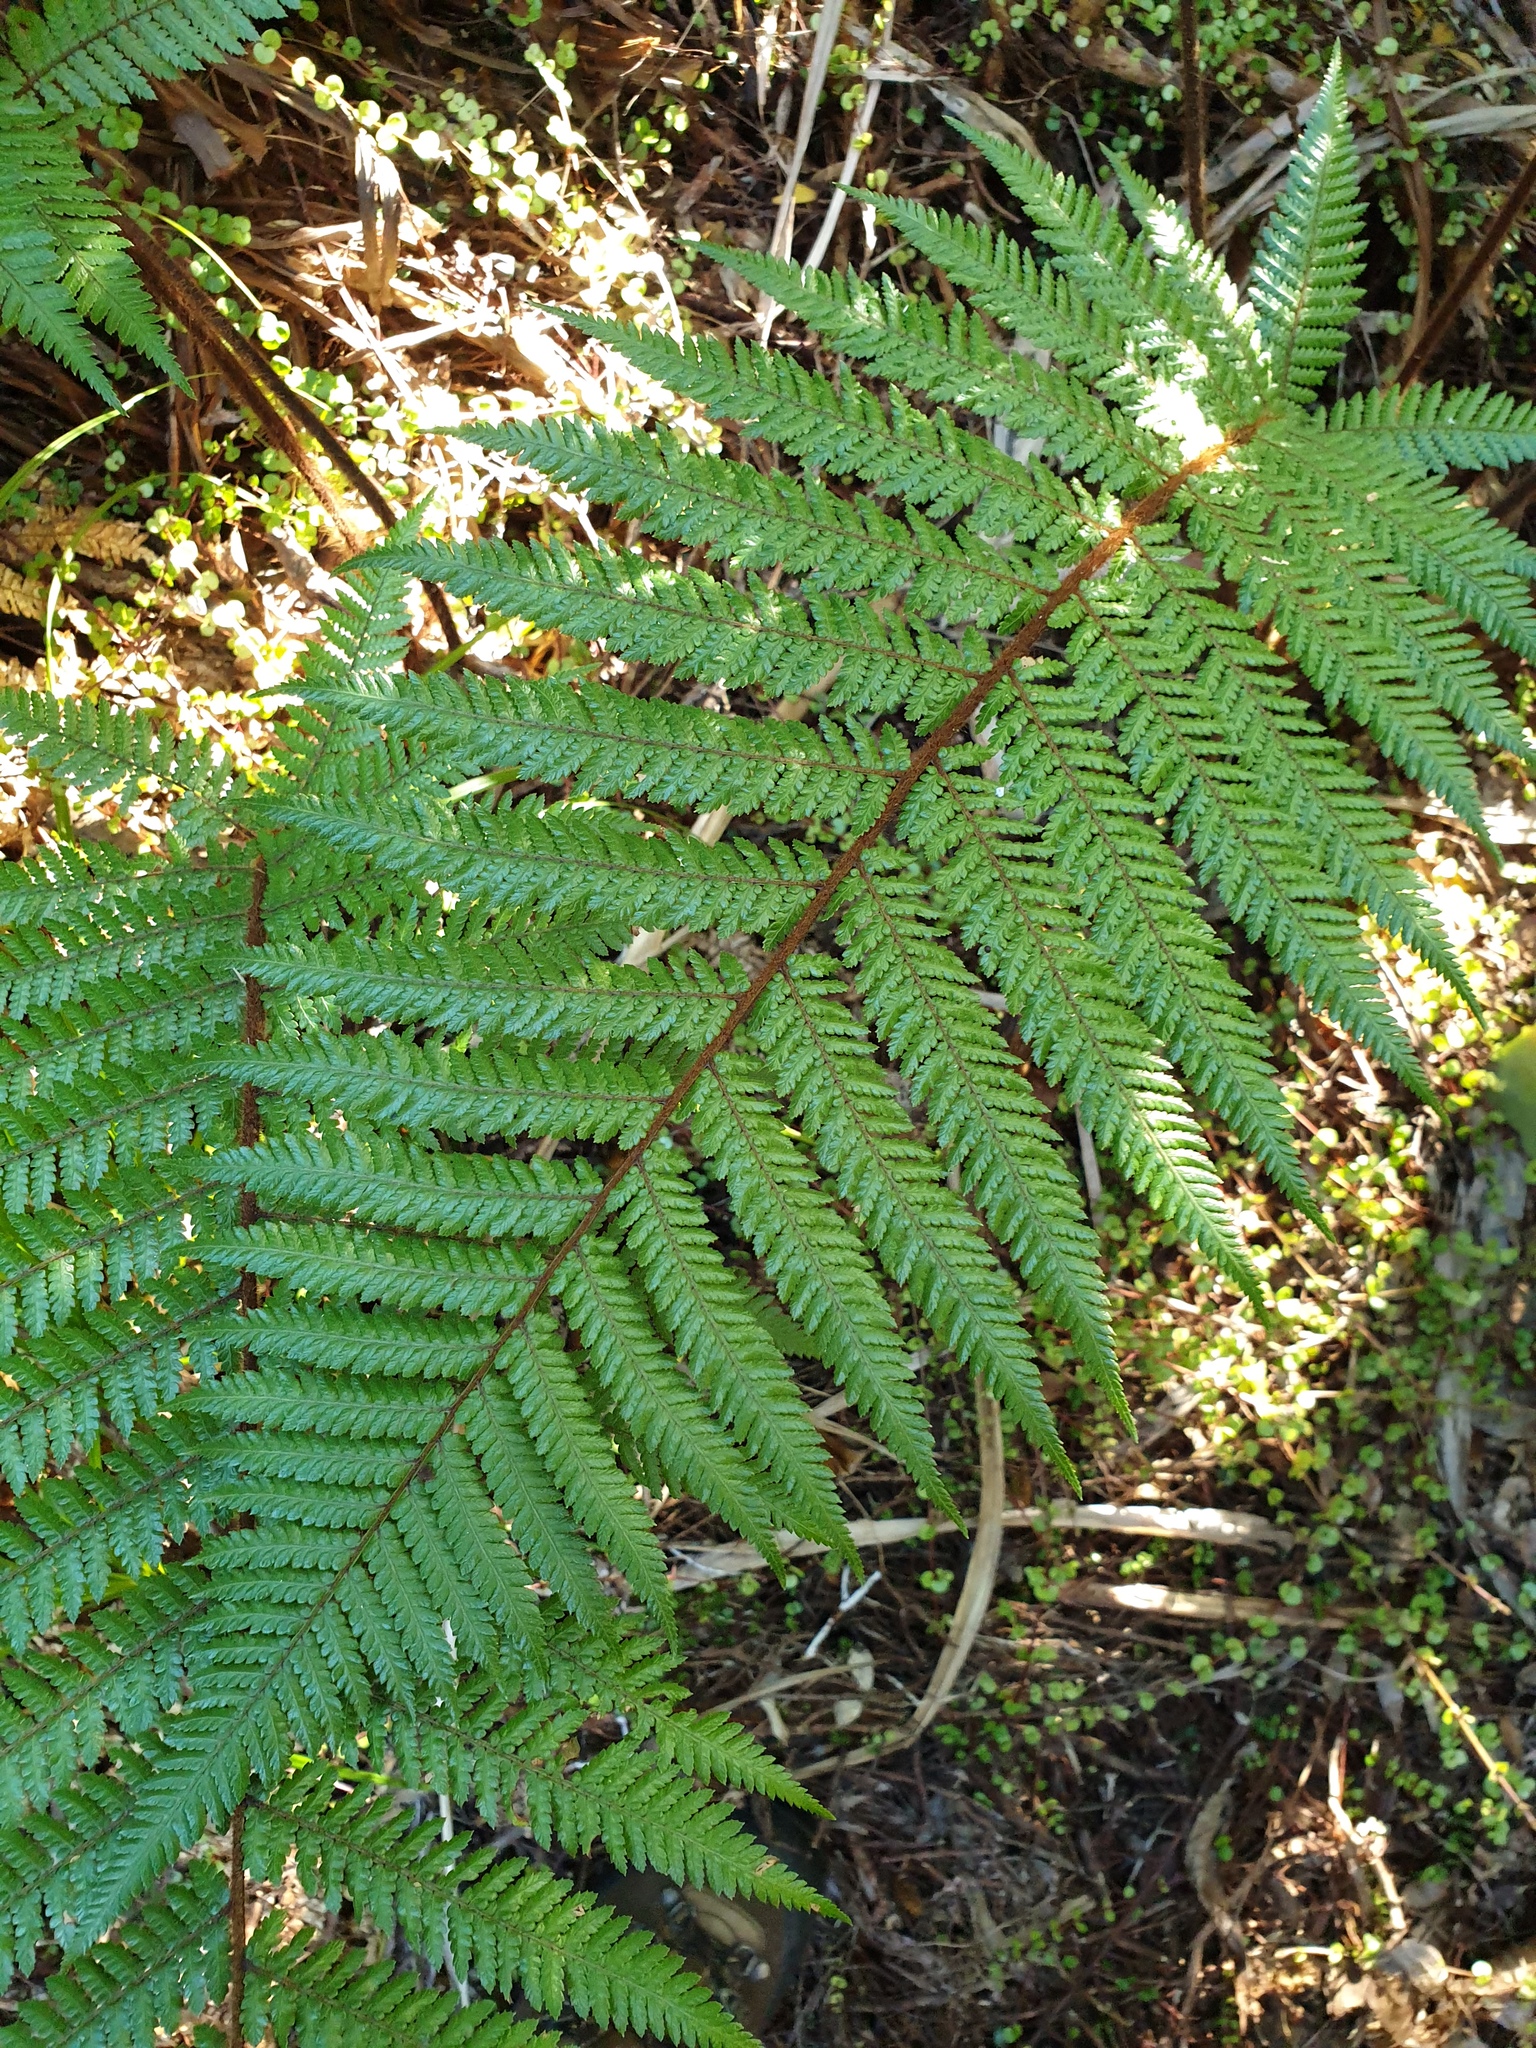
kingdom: Plantae
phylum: Tracheophyta
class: Polypodiopsida
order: Cyatheales
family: Dicksoniaceae
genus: Dicksonia
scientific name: Dicksonia squarrosa
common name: Hard treefern
